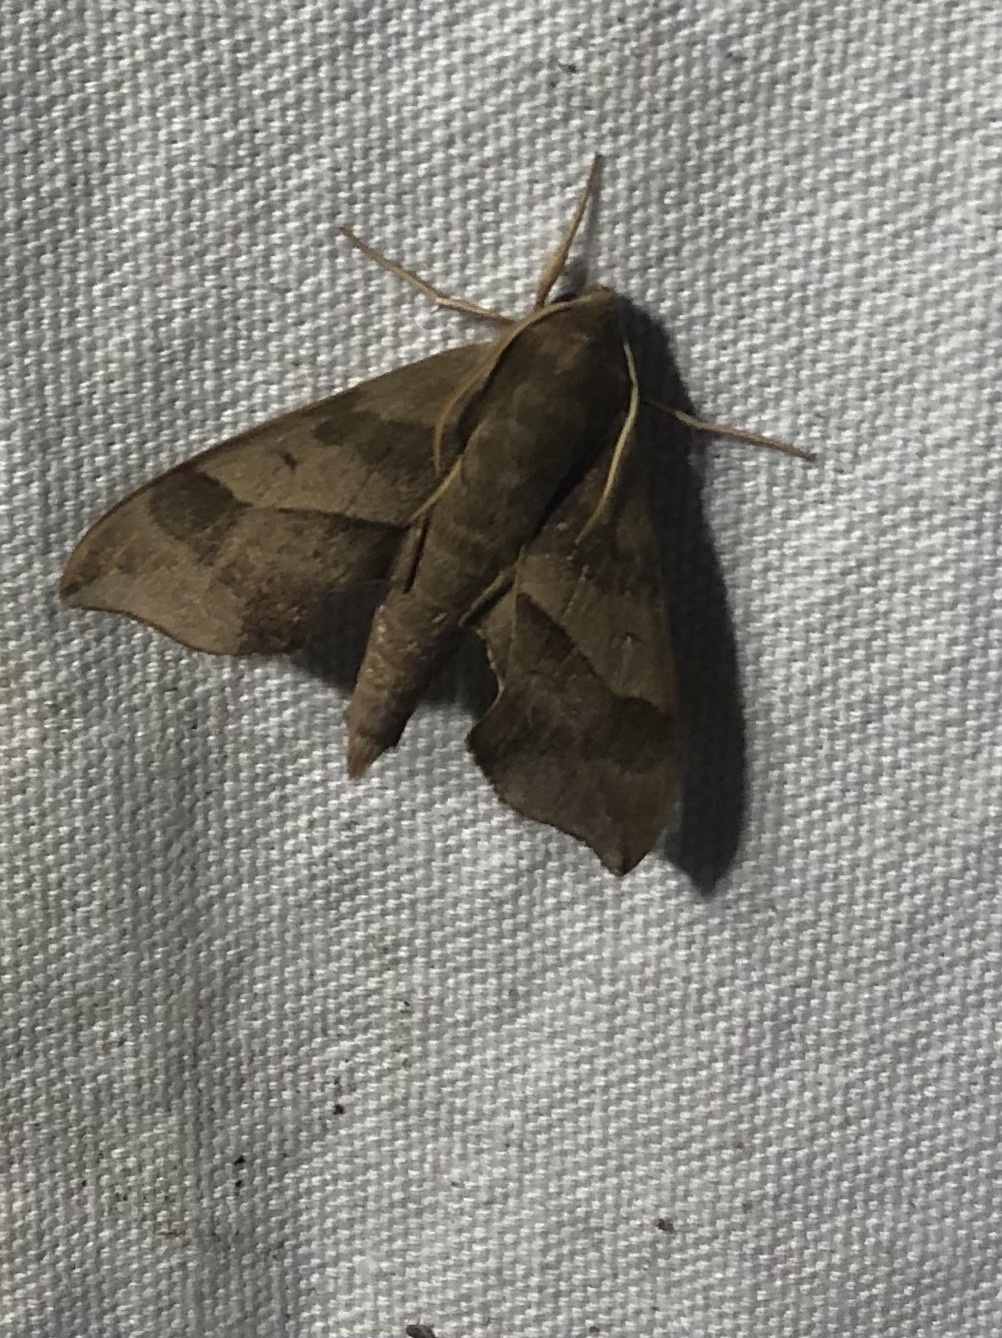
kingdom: Animalia
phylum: Arthropoda
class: Insecta
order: Lepidoptera
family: Sphingidae
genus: Darapsa
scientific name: Darapsa myron
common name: Hog sphinx
